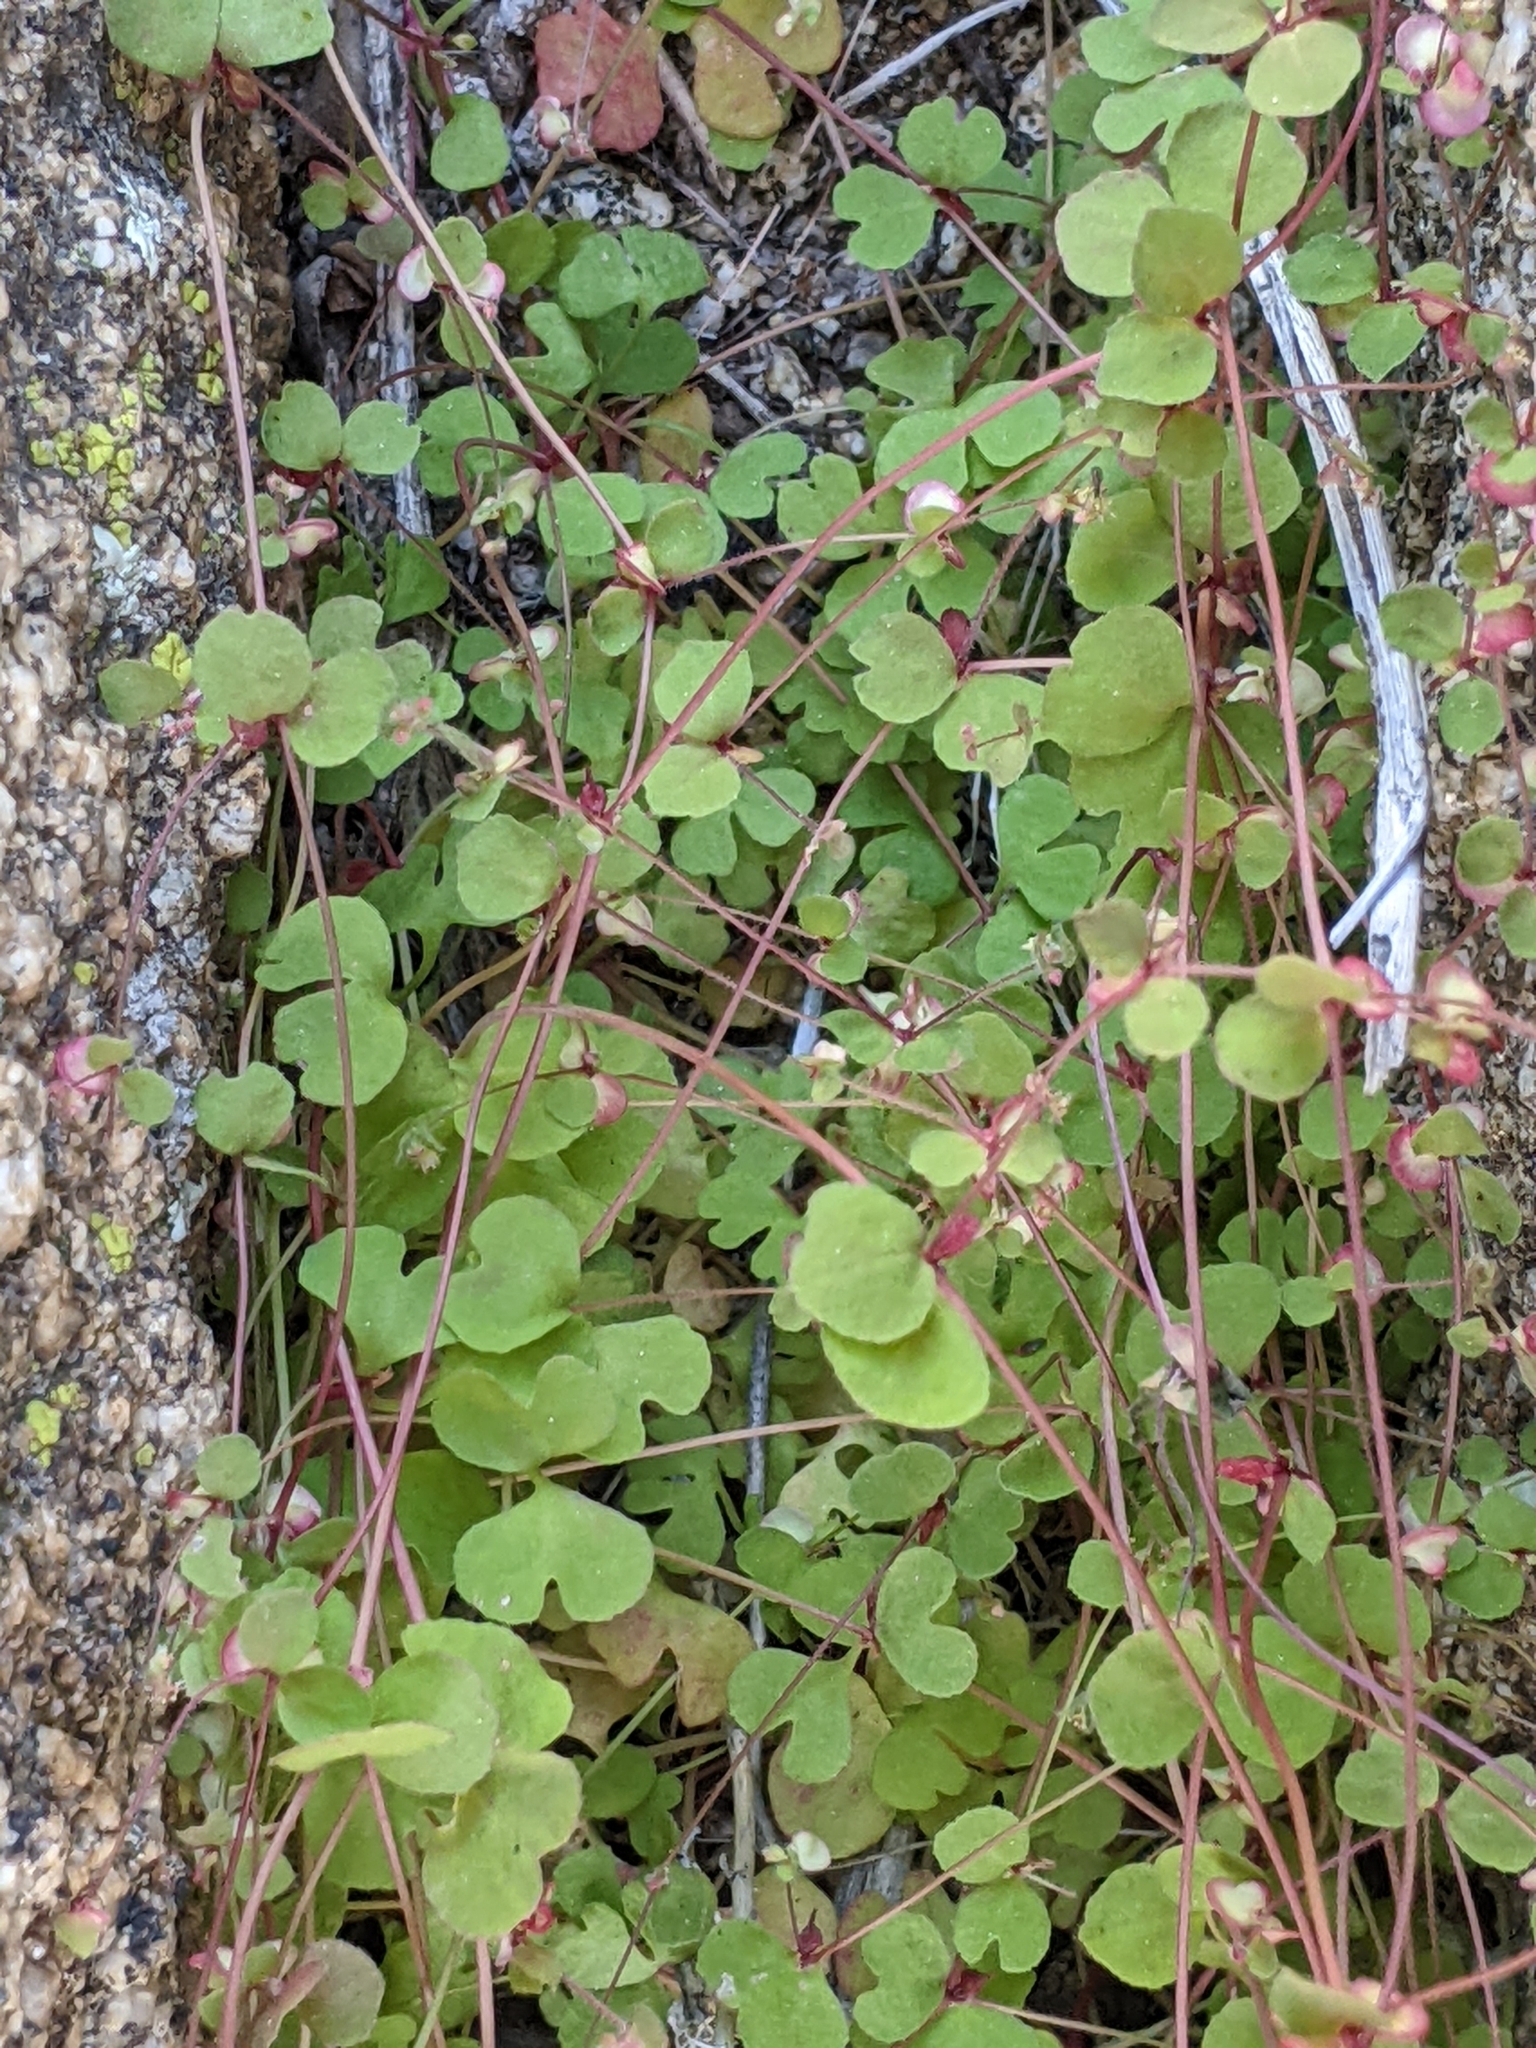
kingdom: Plantae
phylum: Tracheophyta
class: Magnoliopsida
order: Caryophyllales
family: Polygonaceae
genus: Pterostegia
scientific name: Pterostegia drymarioides
